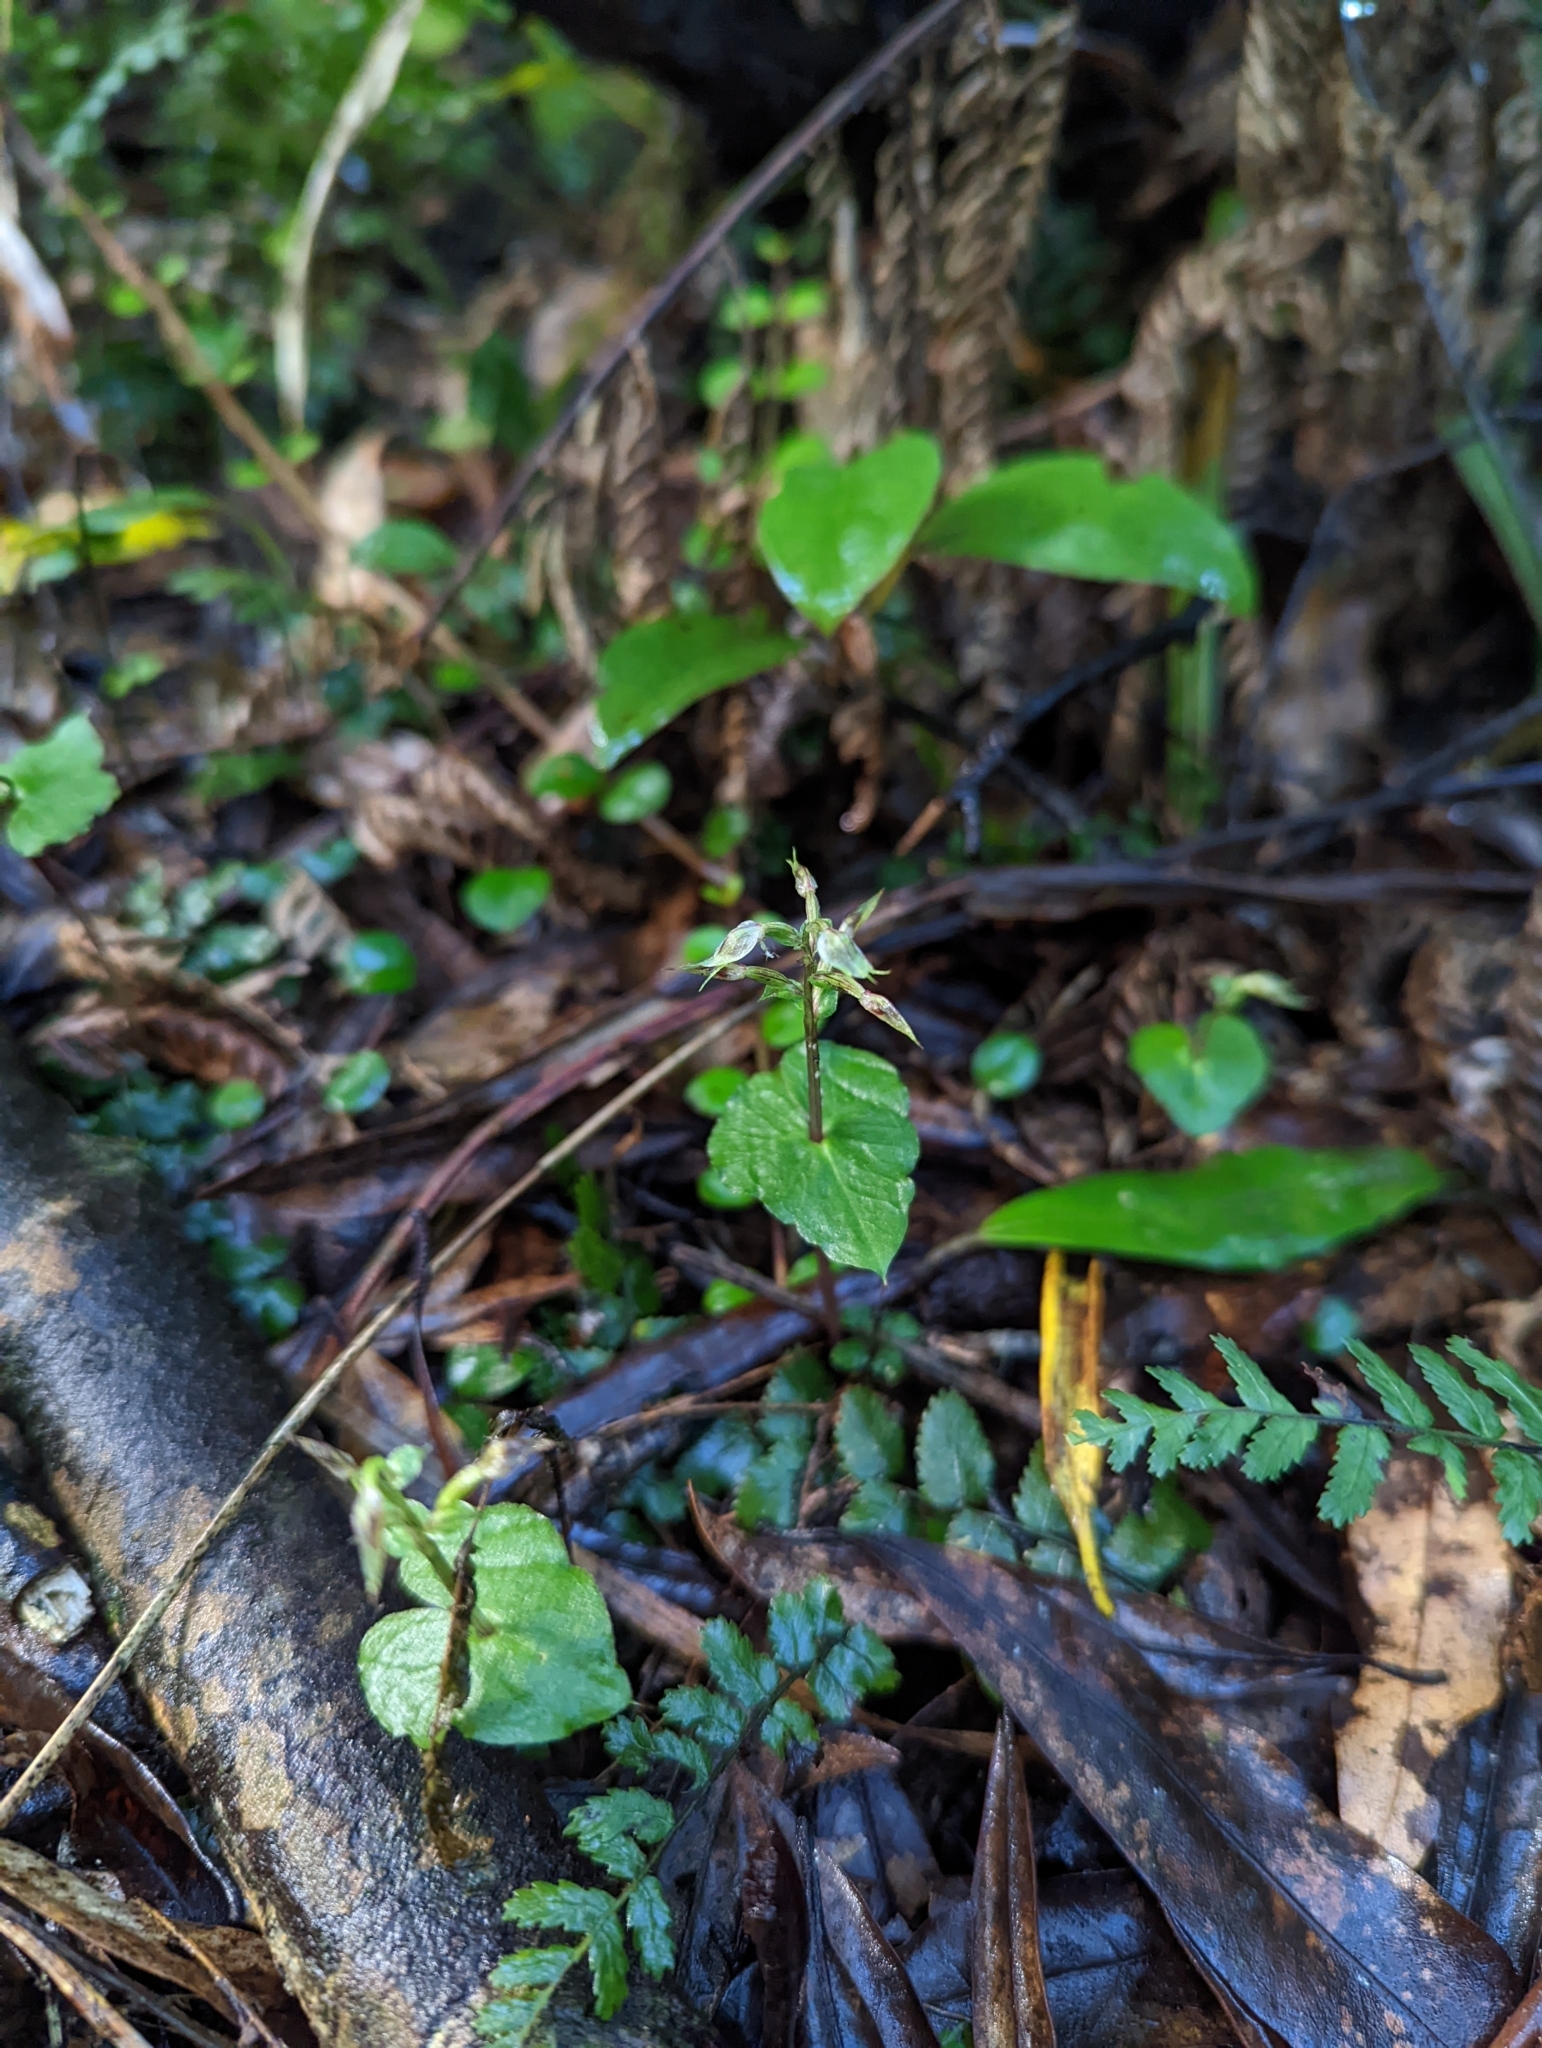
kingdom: Plantae
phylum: Tracheophyta
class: Liliopsida
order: Asparagales
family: Orchidaceae
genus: Acianthus
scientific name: Acianthus sinclairii
